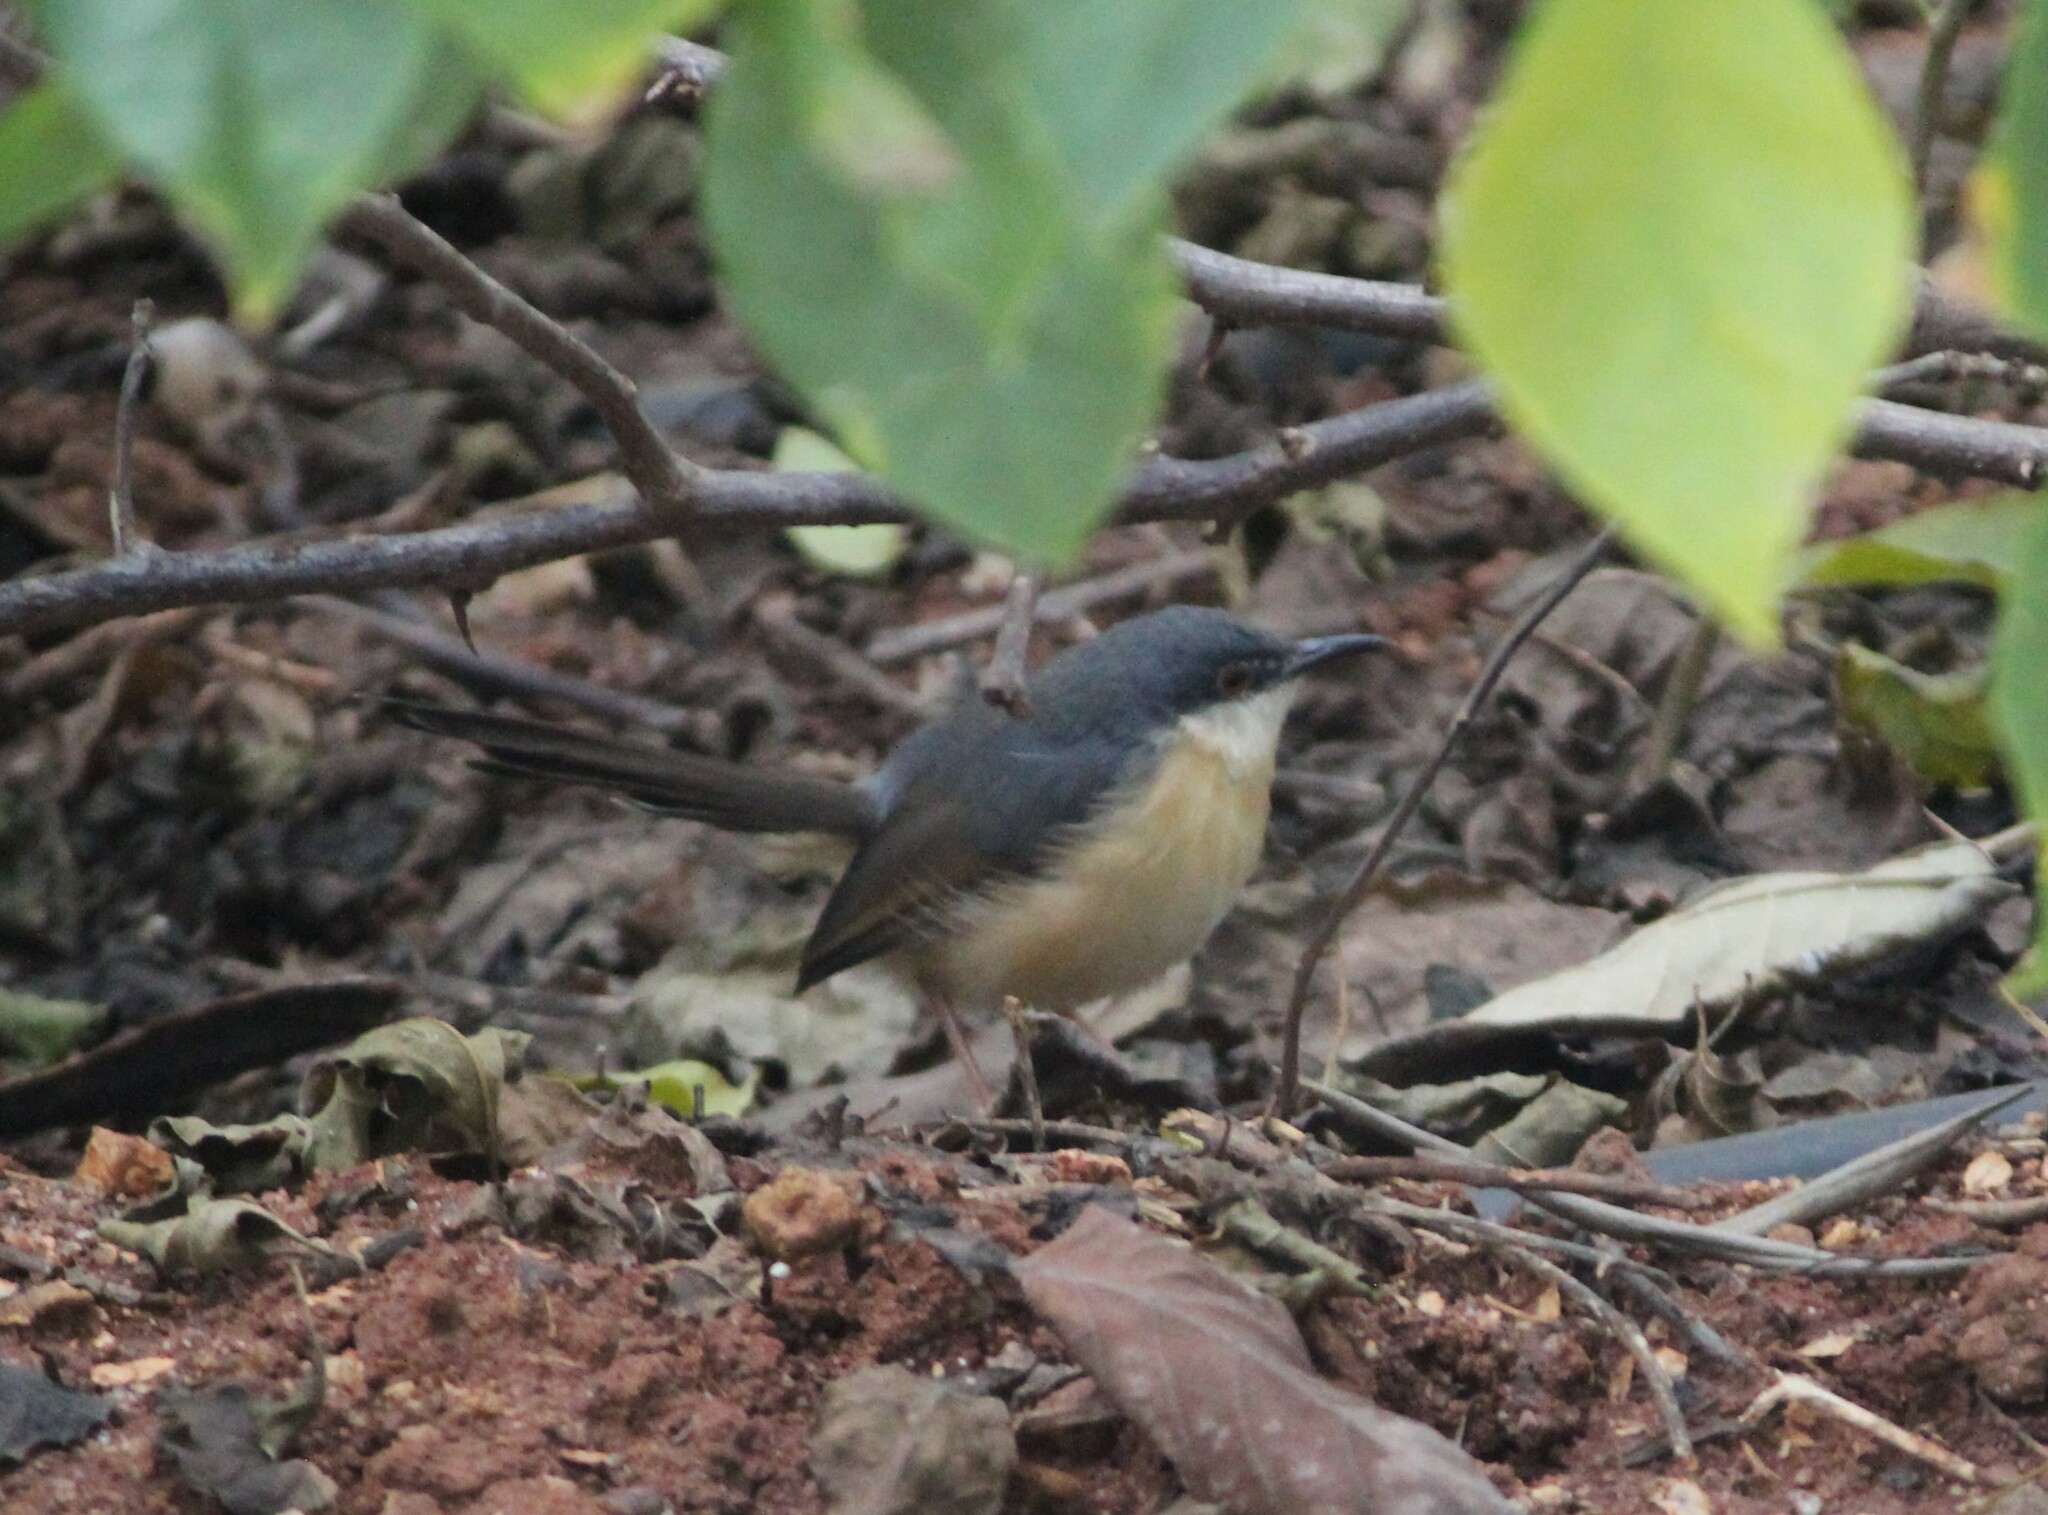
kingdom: Animalia
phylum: Chordata
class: Aves
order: Passeriformes
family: Cisticolidae
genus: Prinia
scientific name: Prinia socialis
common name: Ashy prinia
